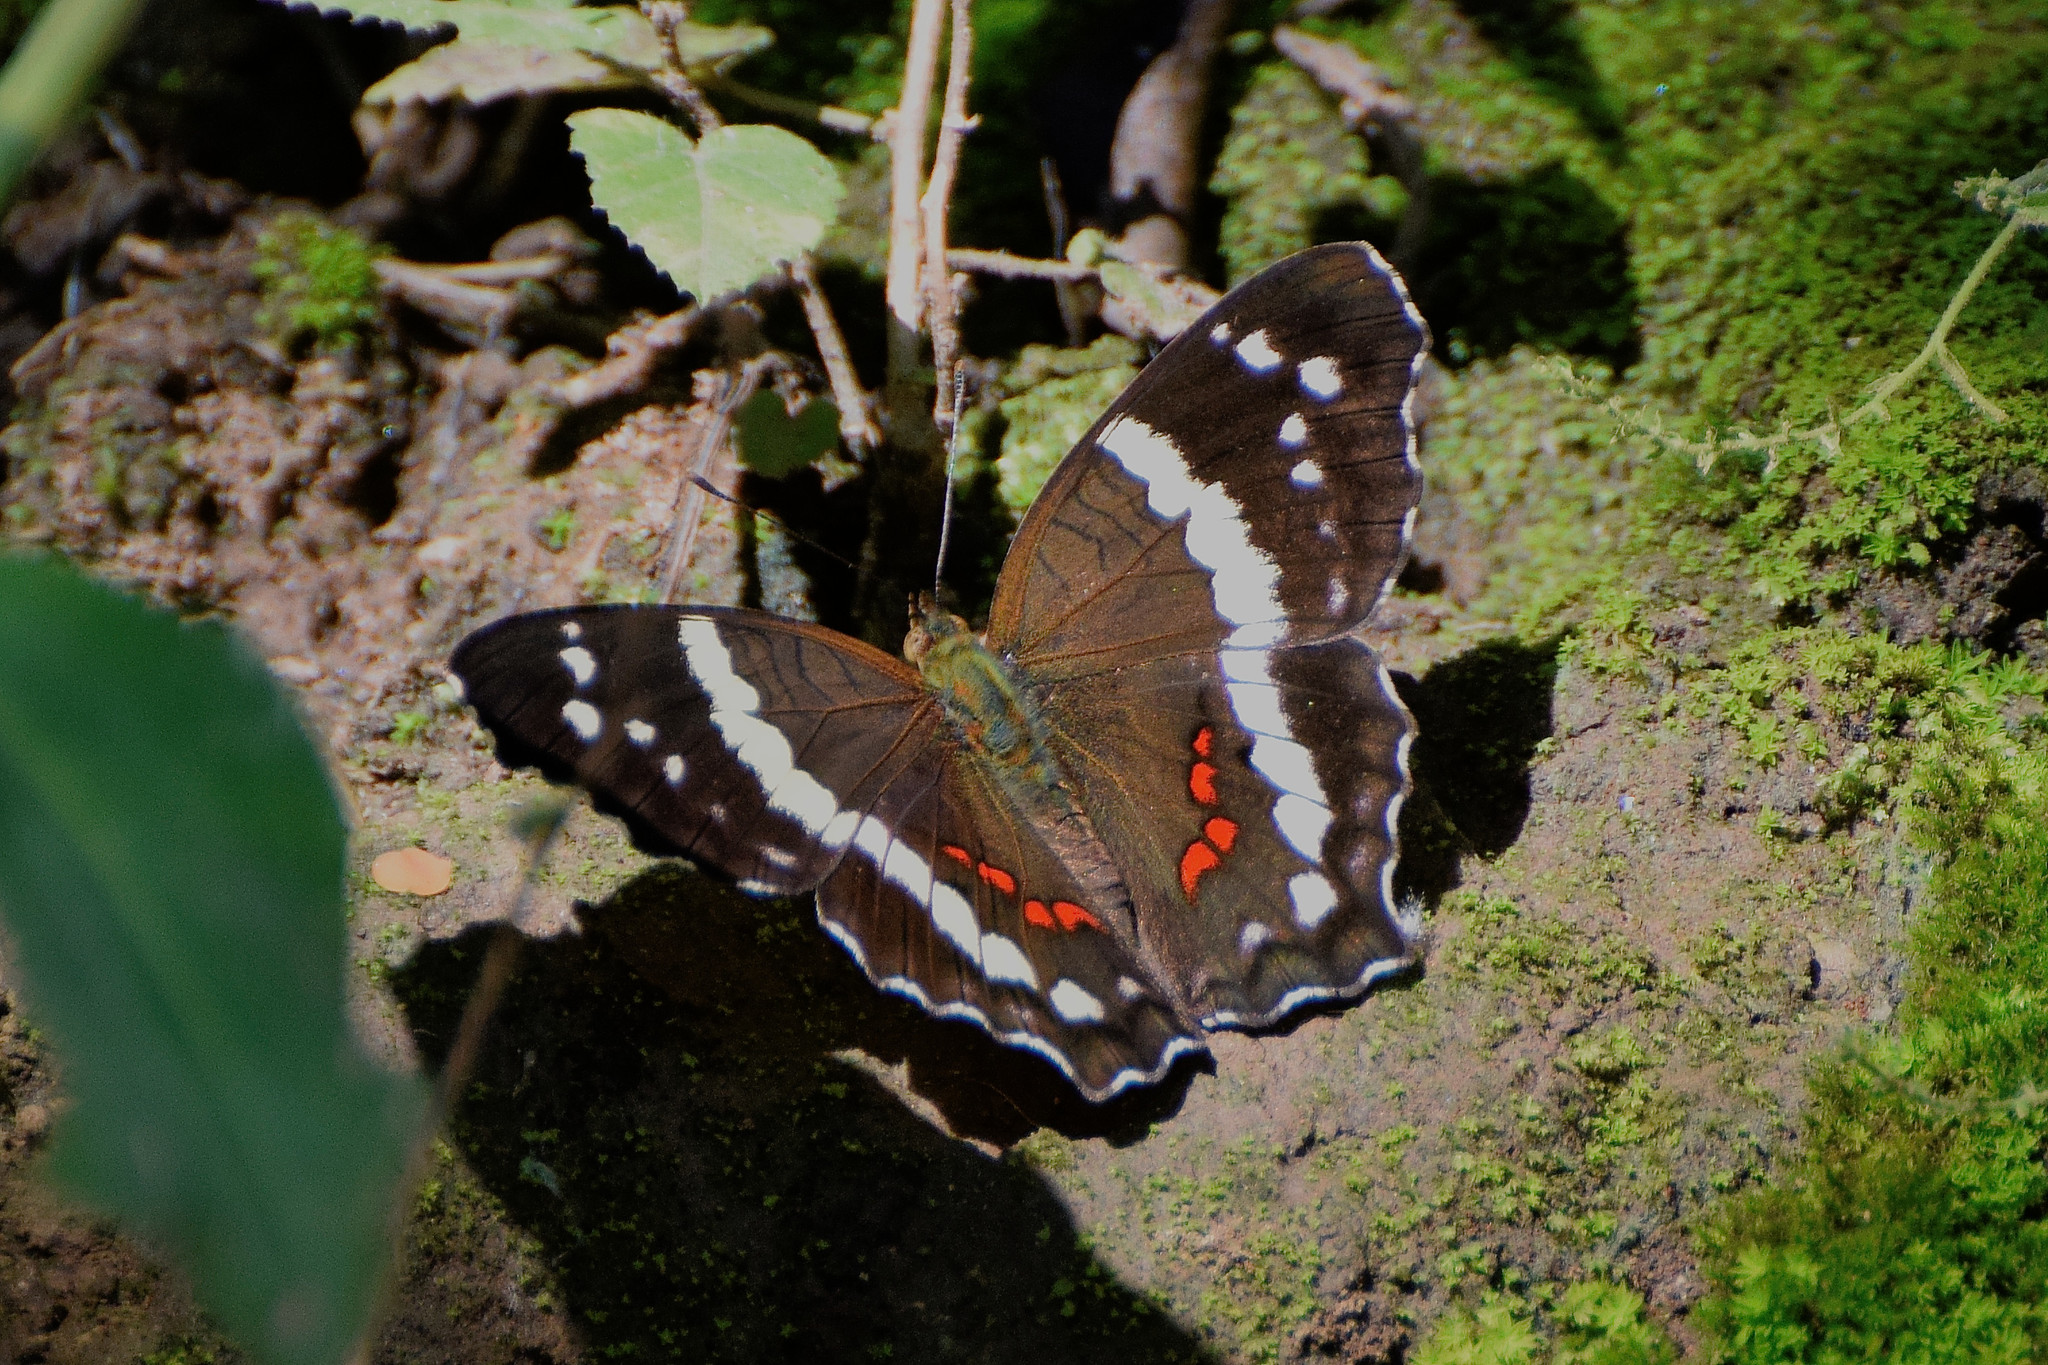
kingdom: Animalia
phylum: Arthropoda
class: Insecta
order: Lepidoptera
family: Nymphalidae
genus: Anartia
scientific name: Anartia fatima
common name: Banded peacock
